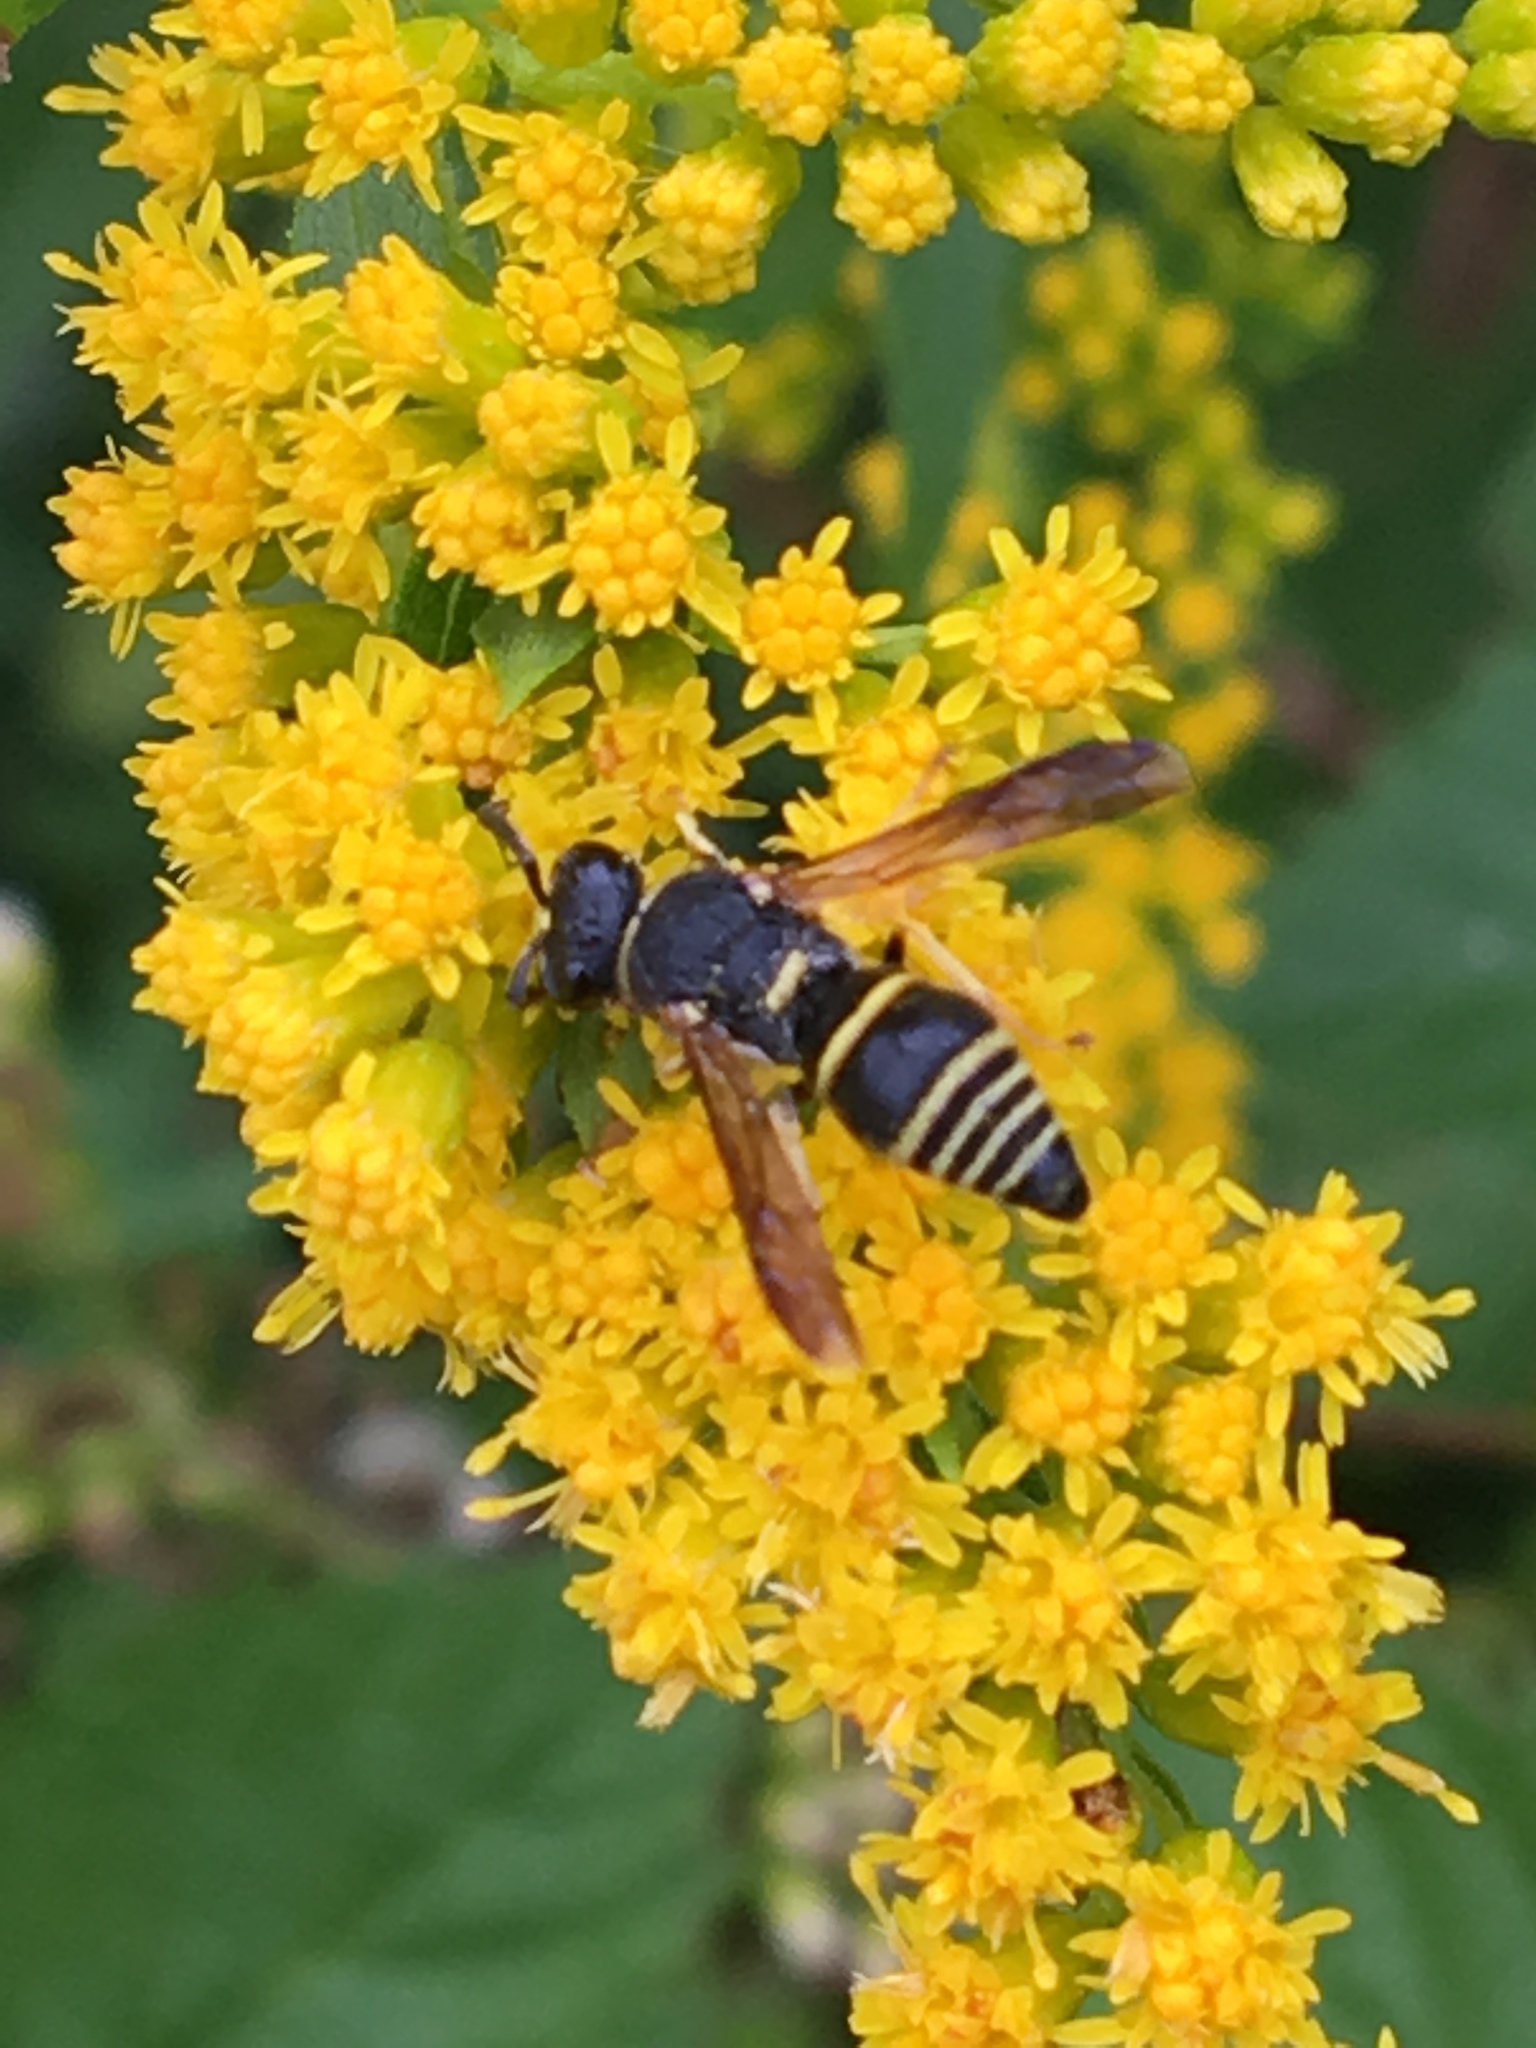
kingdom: Animalia
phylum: Arthropoda
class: Insecta
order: Hymenoptera
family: Eumenidae
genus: Euodynerus
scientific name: Euodynerus foraminatus
